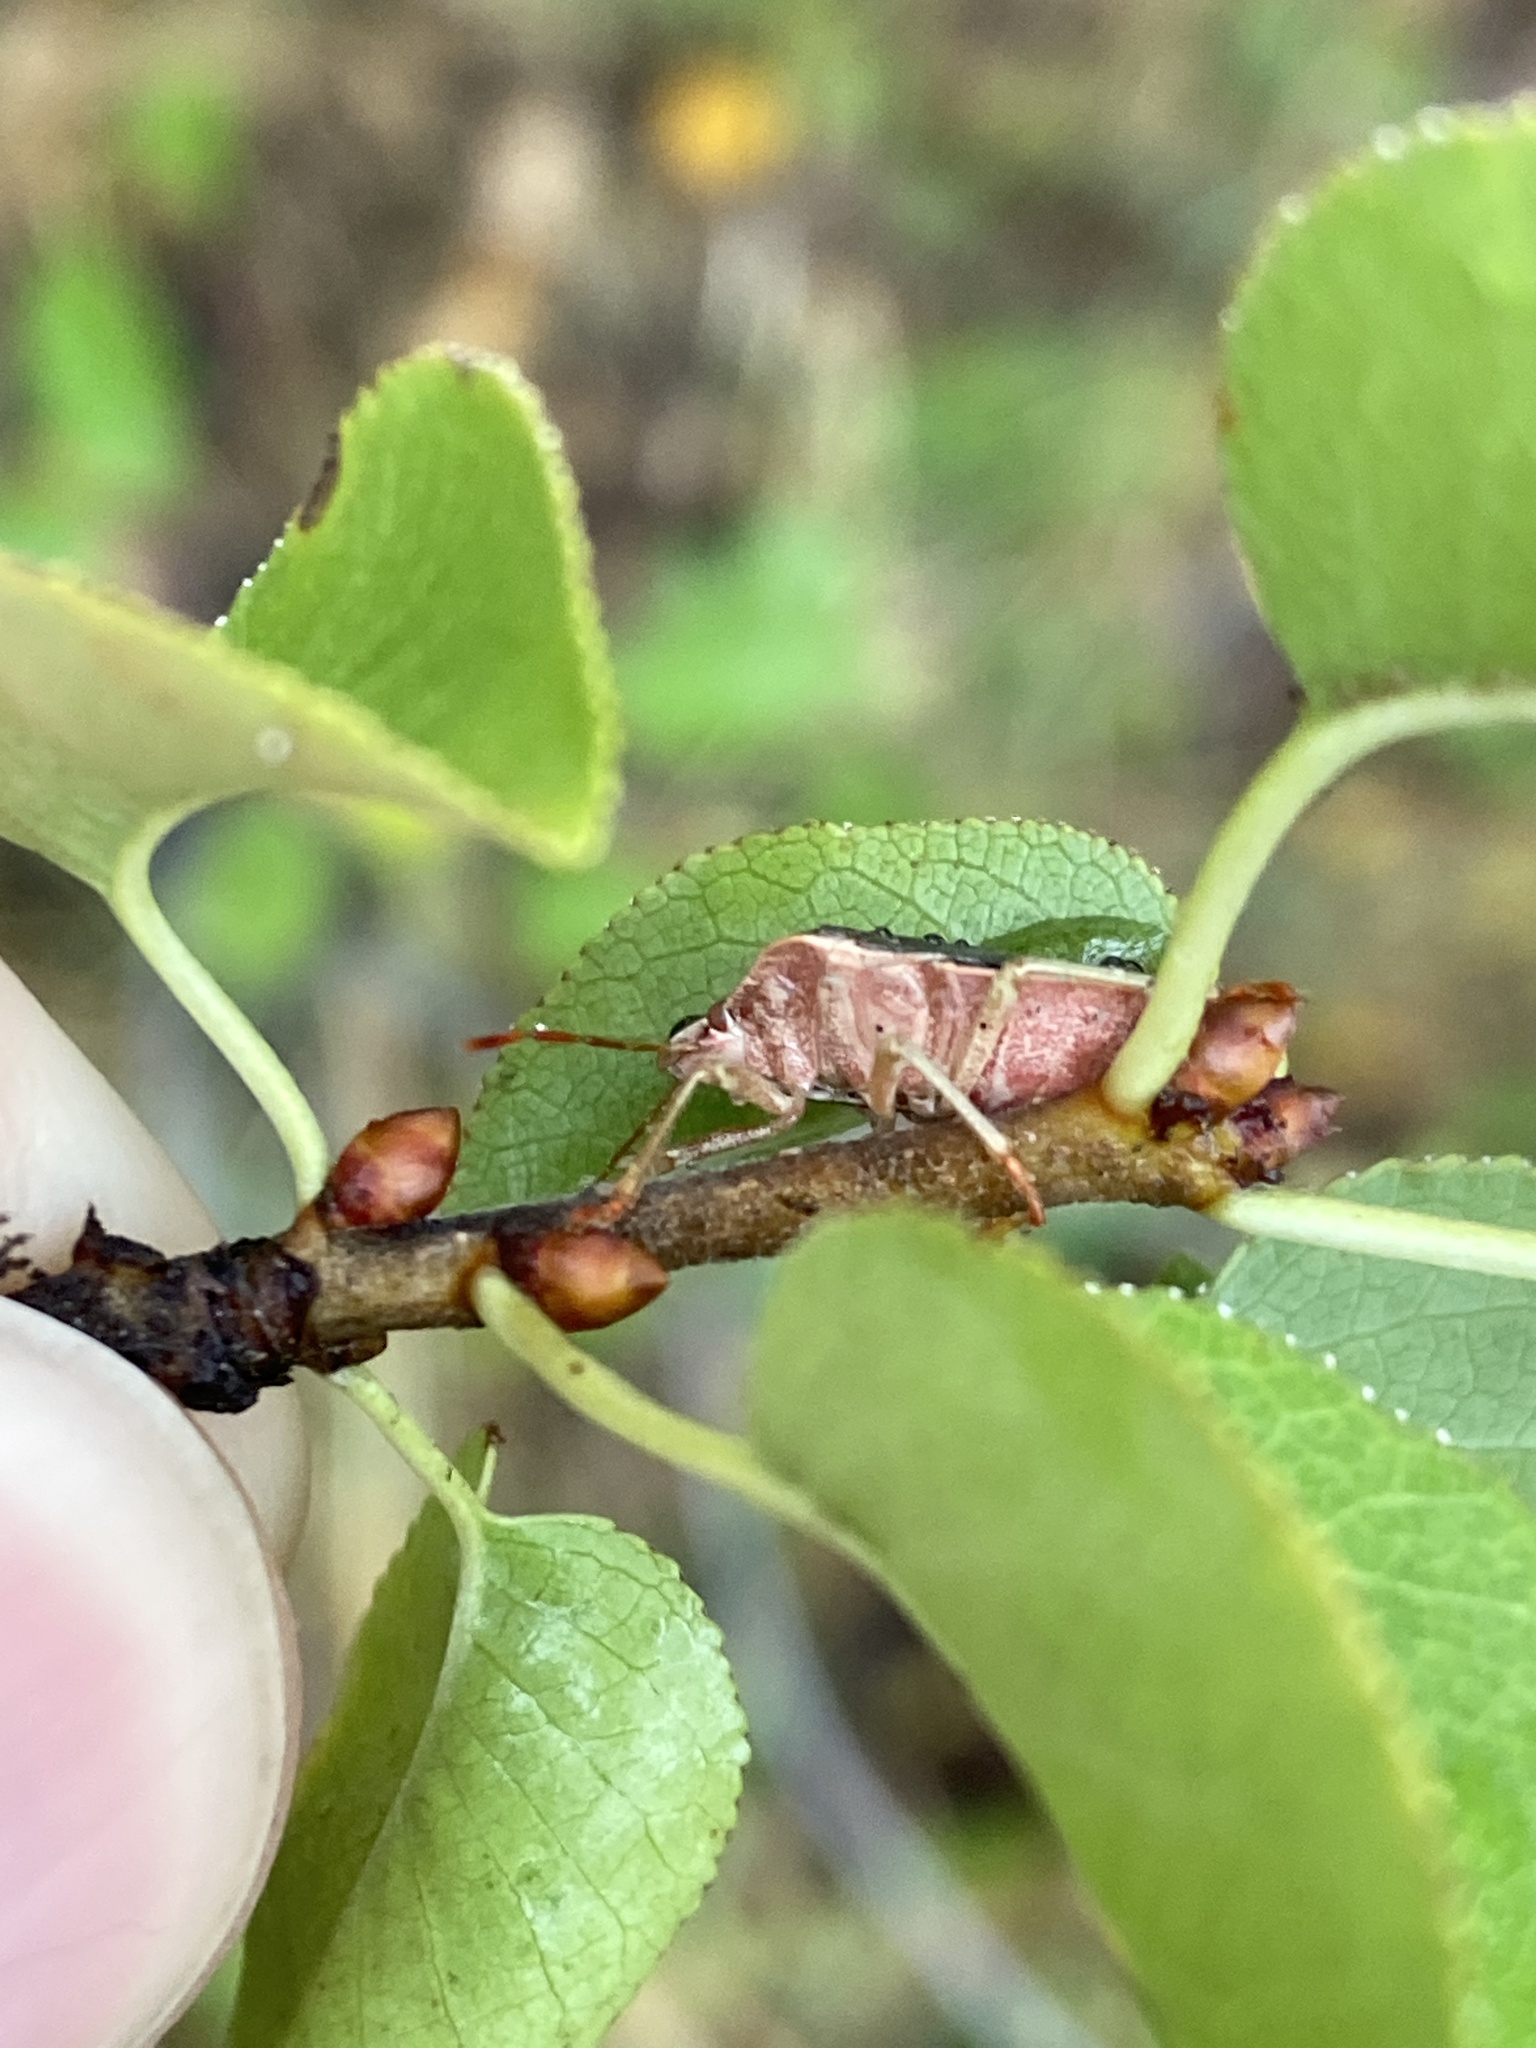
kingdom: Animalia
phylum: Arthropoda
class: Insecta
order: Hemiptera
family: Pentatomidae
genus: Palomena
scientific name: Palomena prasina
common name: Green shieldbug
